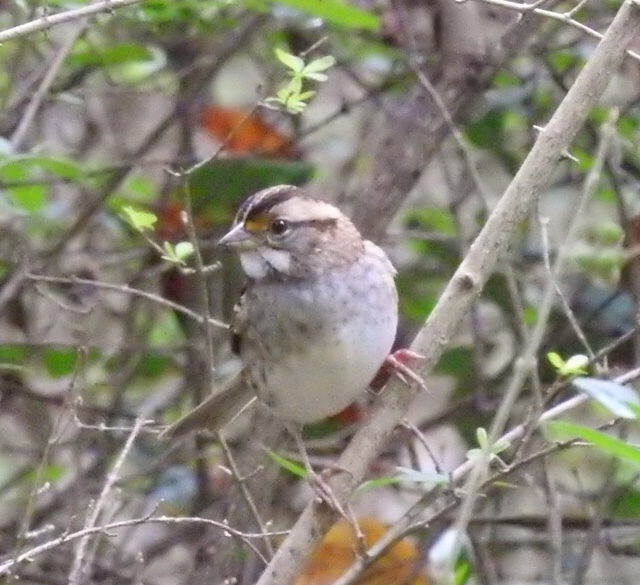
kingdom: Animalia
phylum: Chordata
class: Aves
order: Passeriformes
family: Passerellidae
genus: Zonotrichia
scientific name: Zonotrichia albicollis
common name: White-throated sparrow
